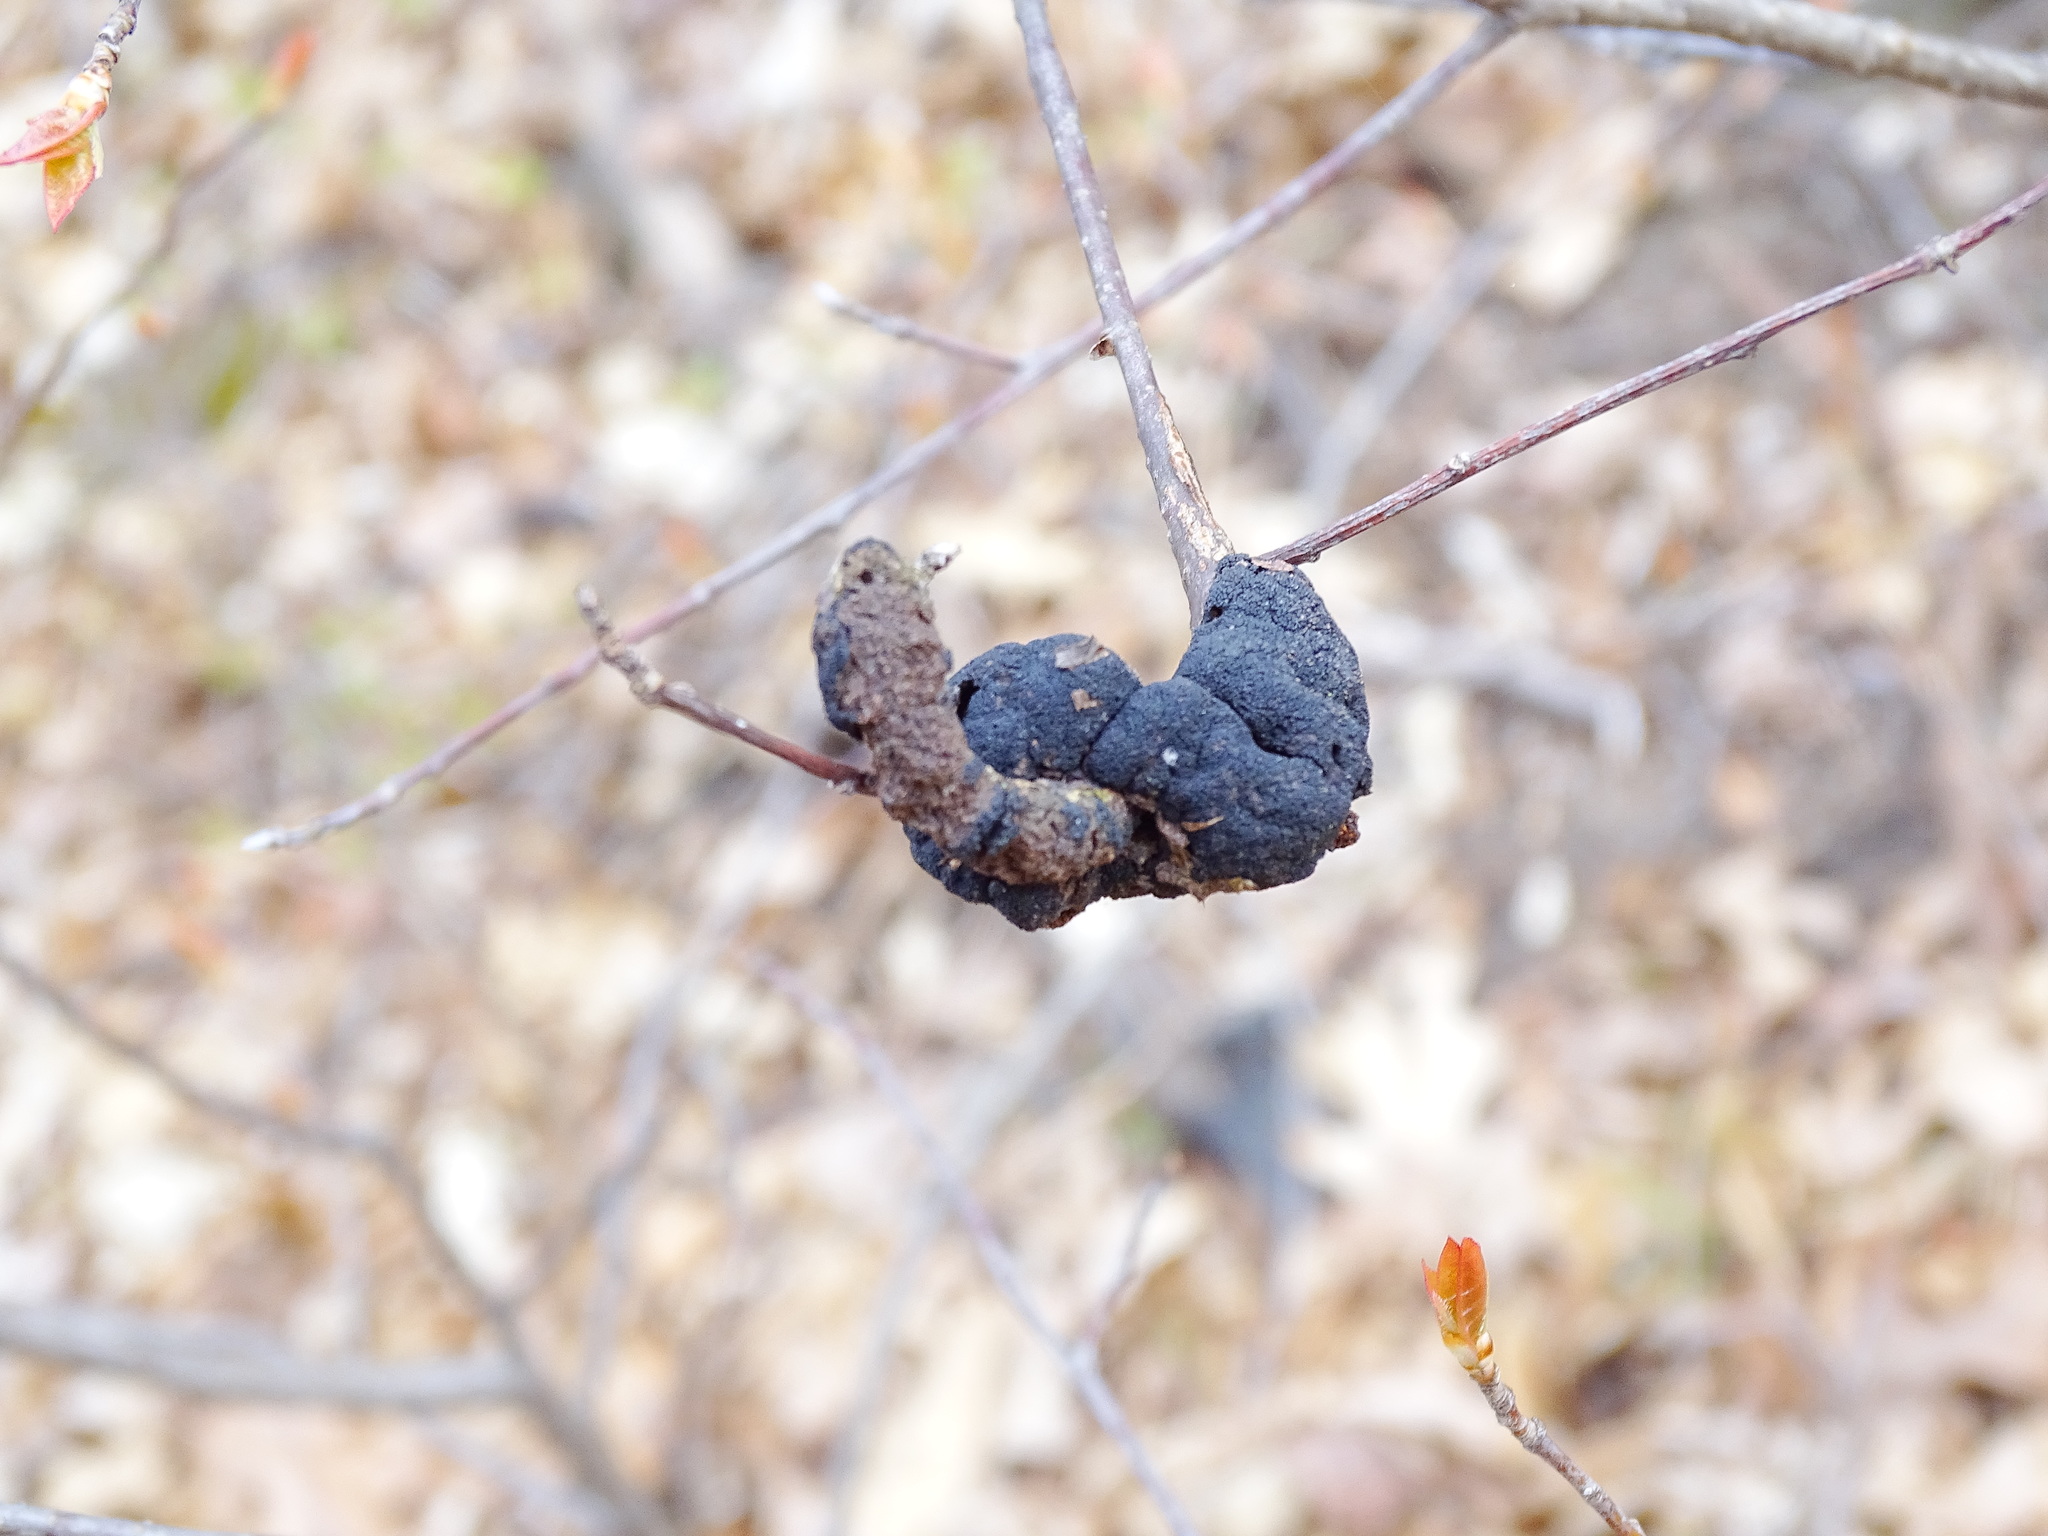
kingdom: Fungi
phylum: Ascomycota
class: Dothideomycetes
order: Venturiales
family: Venturiaceae
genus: Apiosporina
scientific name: Apiosporina morbosa
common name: Black knot
